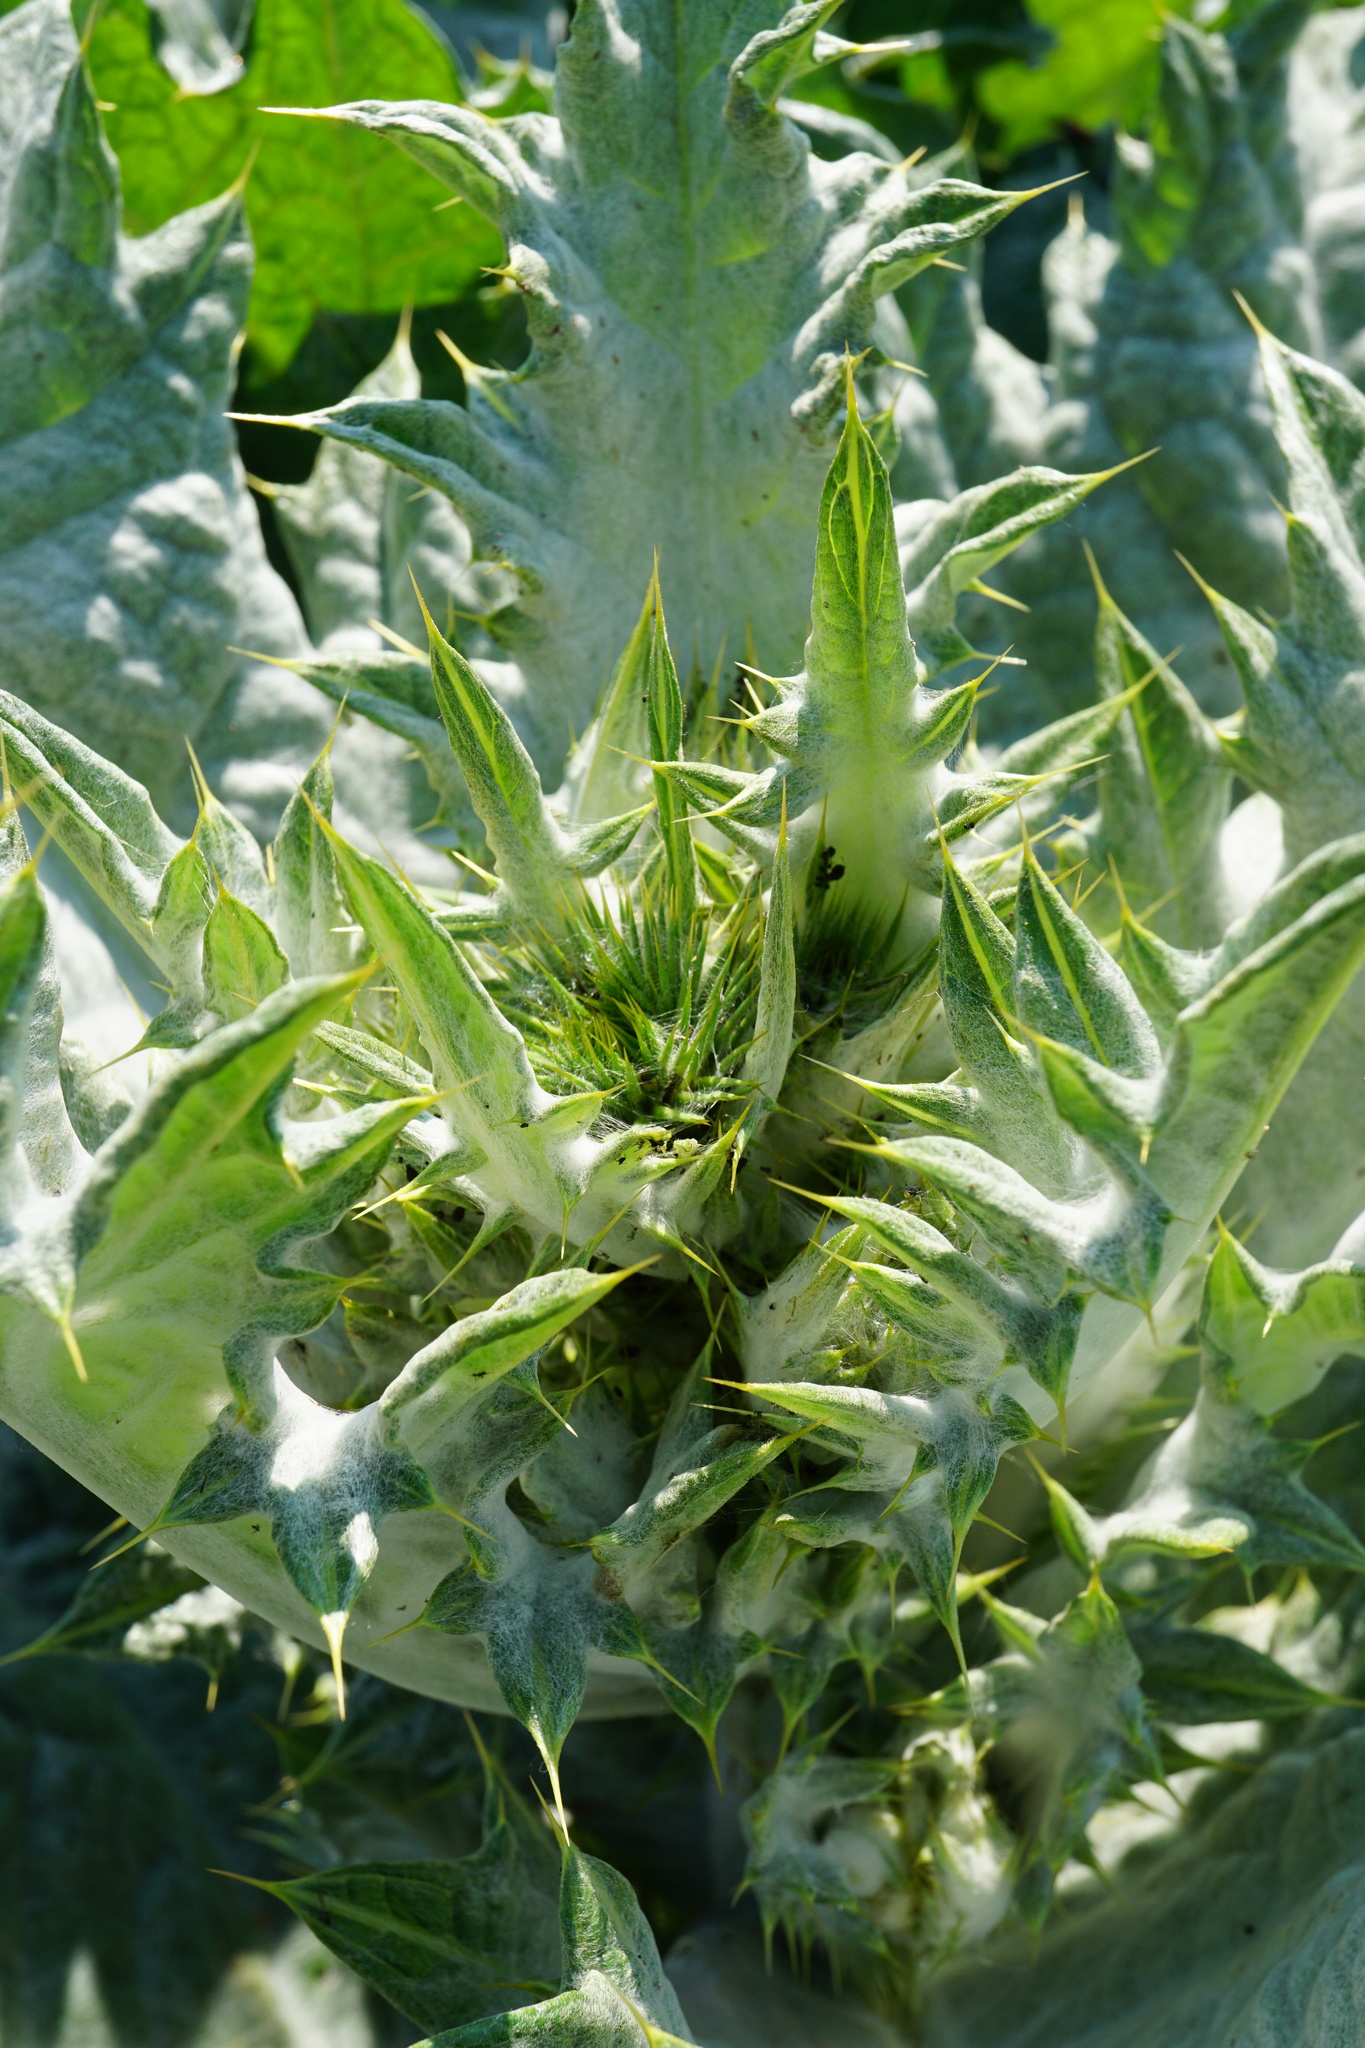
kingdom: Plantae
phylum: Tracheophyta
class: Magnoliopsida
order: Asterales
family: Asteraceae
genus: Onopordum
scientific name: Onopordum acanthium
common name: Scotch thistle
